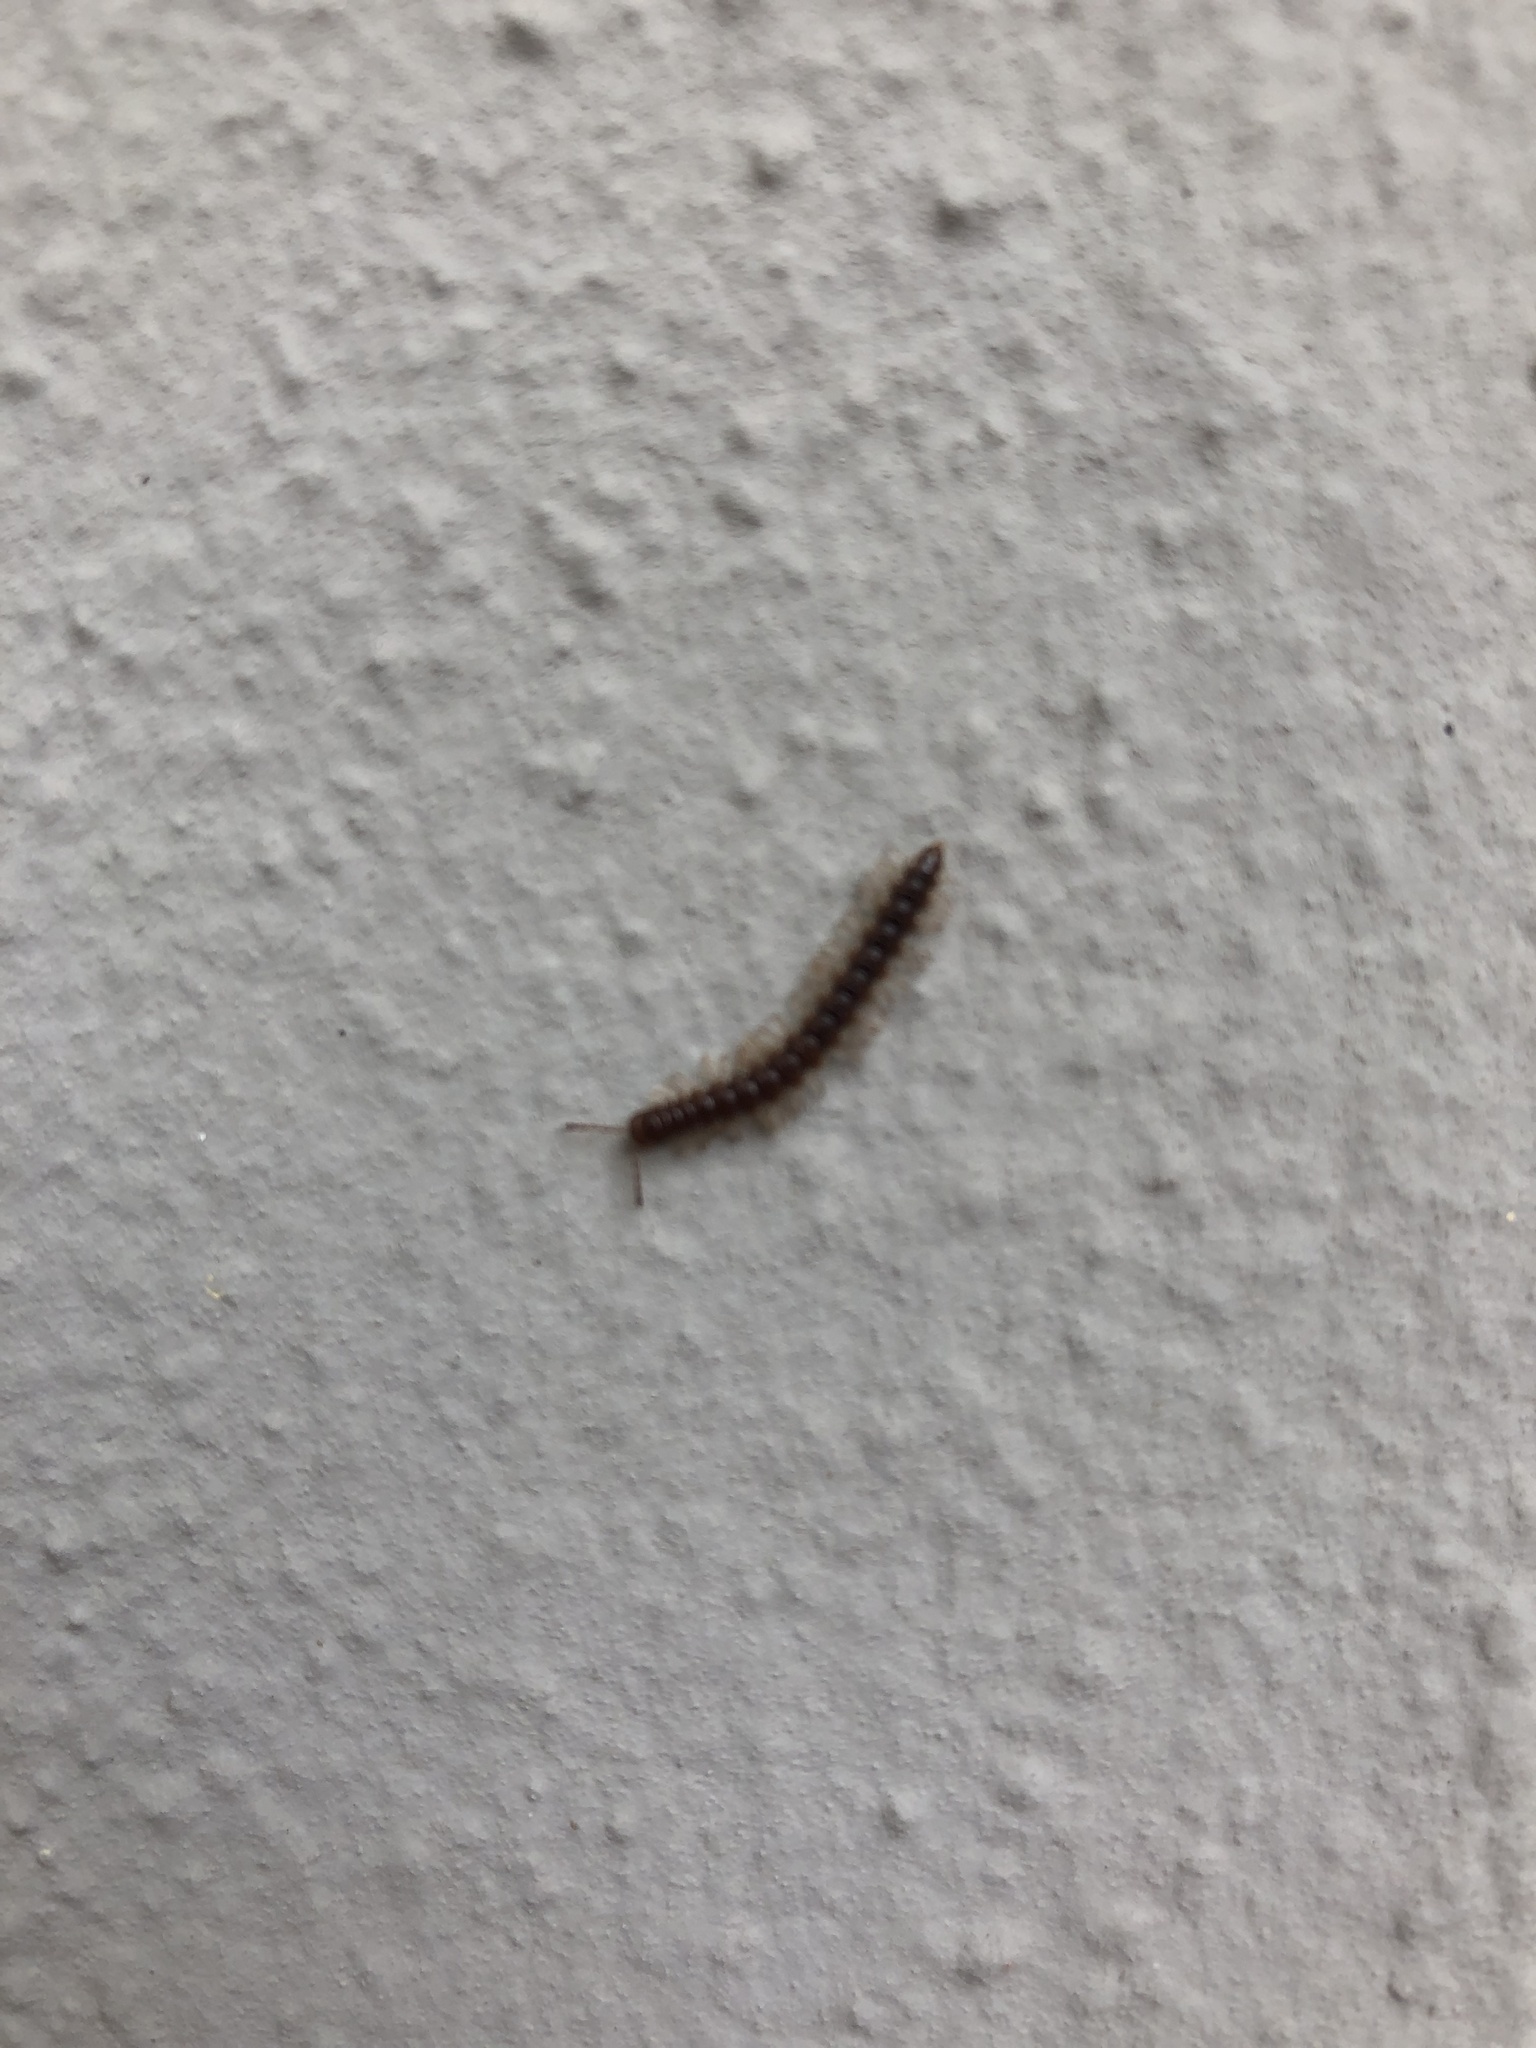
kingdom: Animalia
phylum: Arthropoda
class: Diplopoda
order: Polydesmida
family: Paradoxosomatidae
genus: Oxidus
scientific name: Oxidus gracilis
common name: Greenhouse millipede
